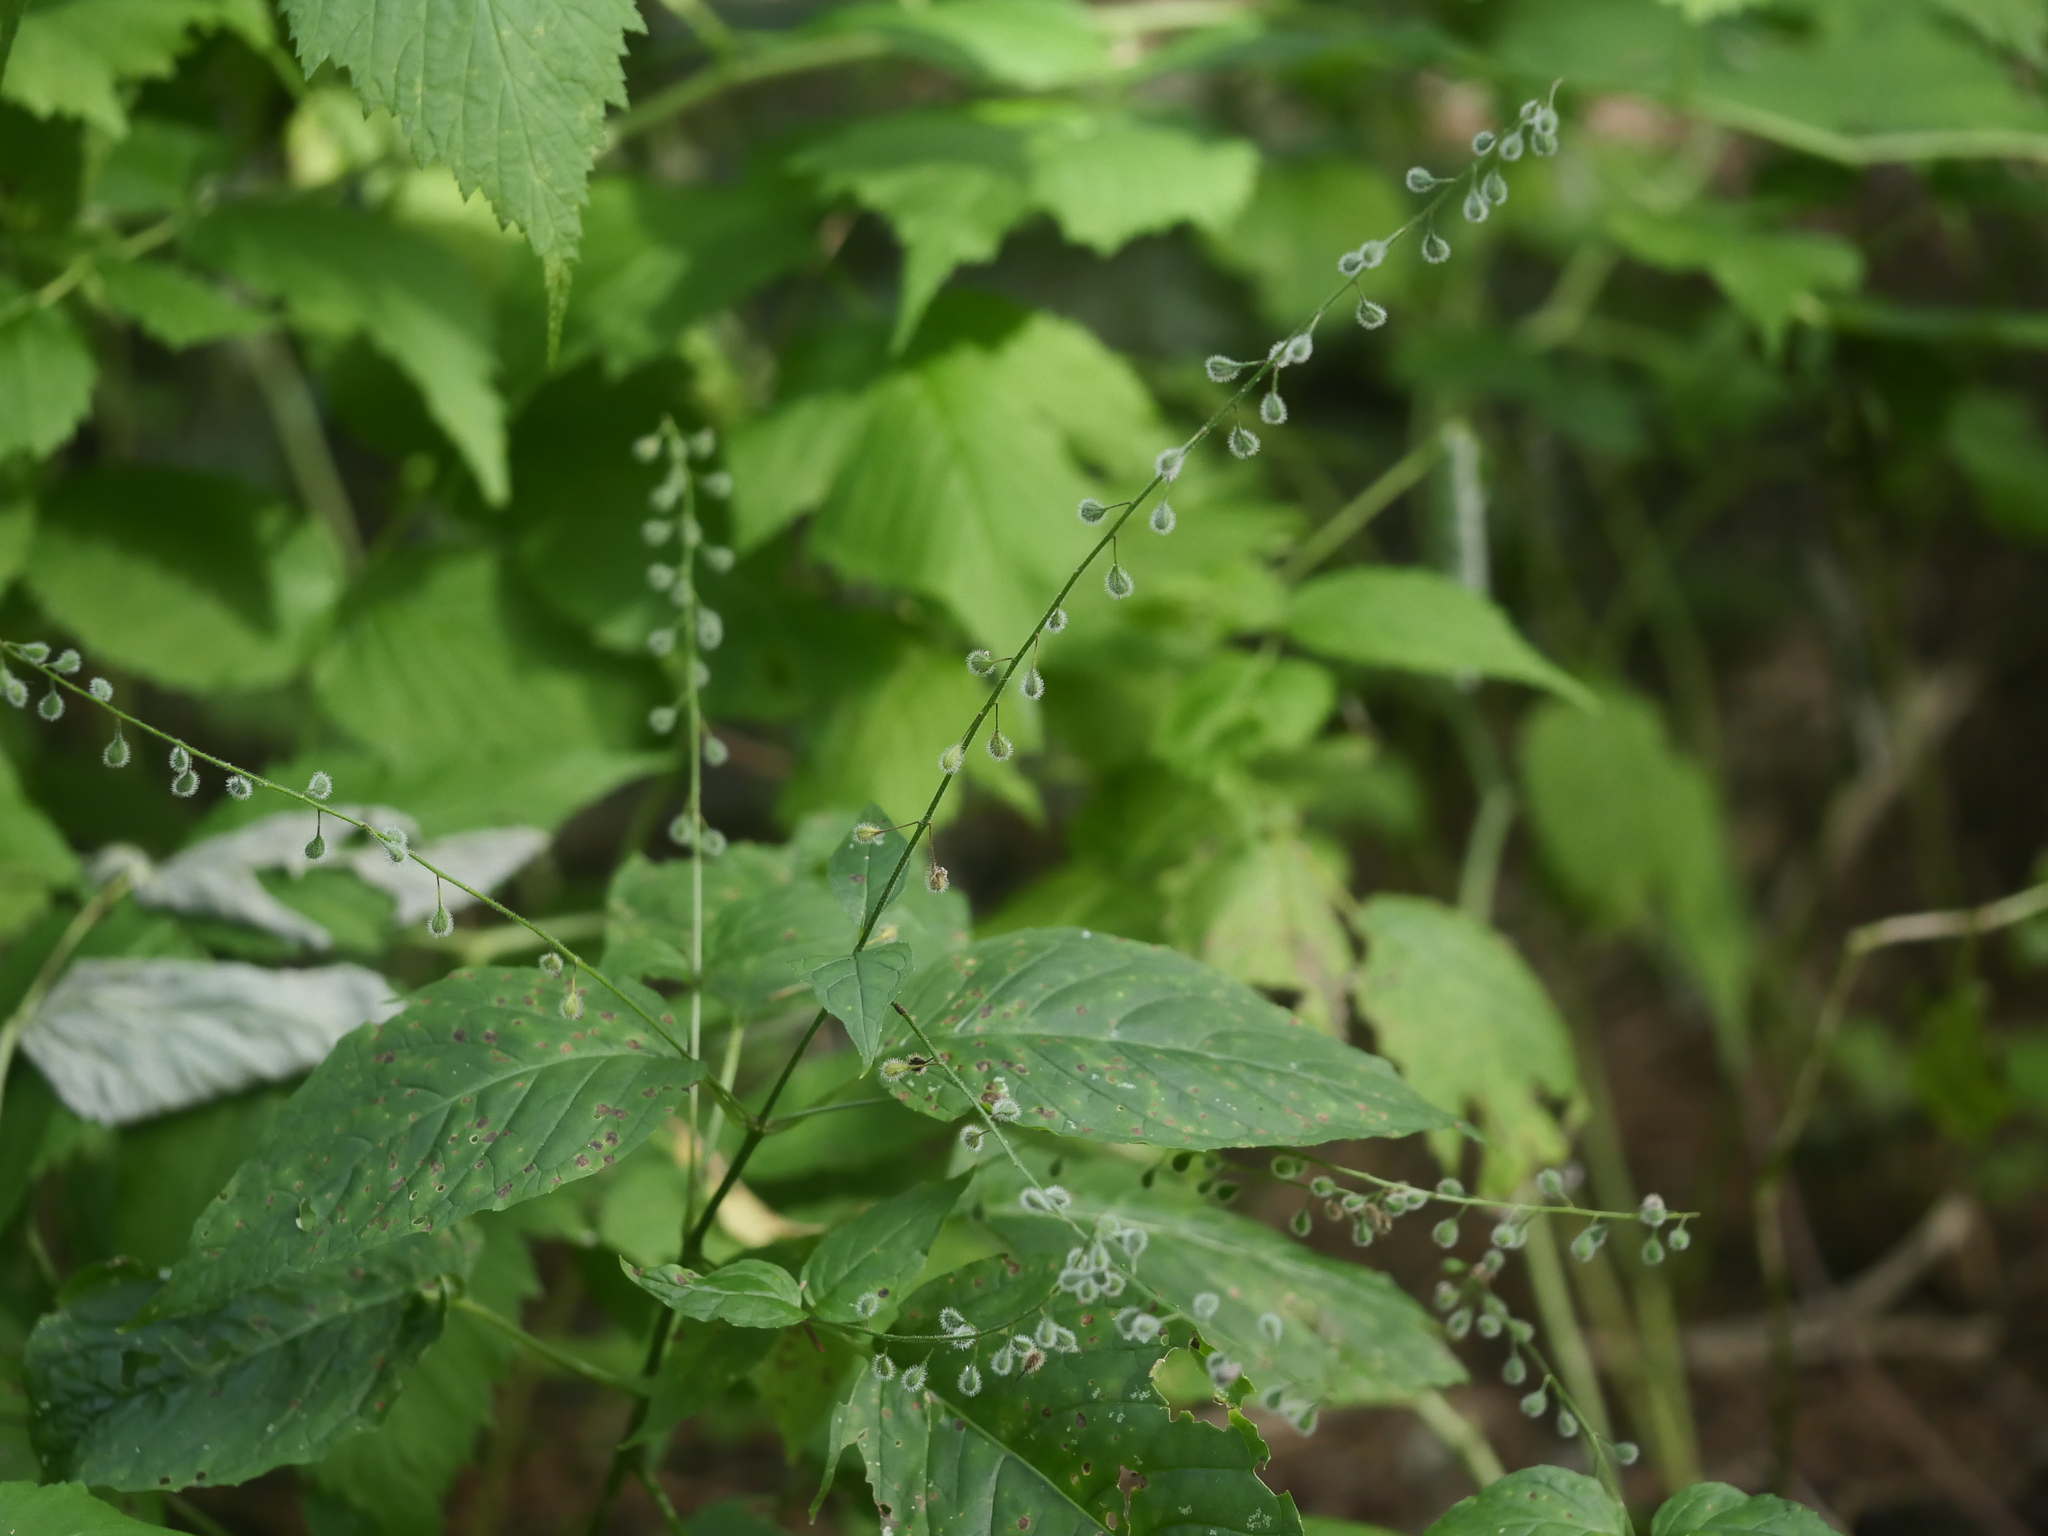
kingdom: Plantae
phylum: Tracheophyta
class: Magnoliopsida
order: Myrtales
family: Onagraceae
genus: Circaea
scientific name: Circaea canadensis
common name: Broad-leaved enchanter's nightshade
